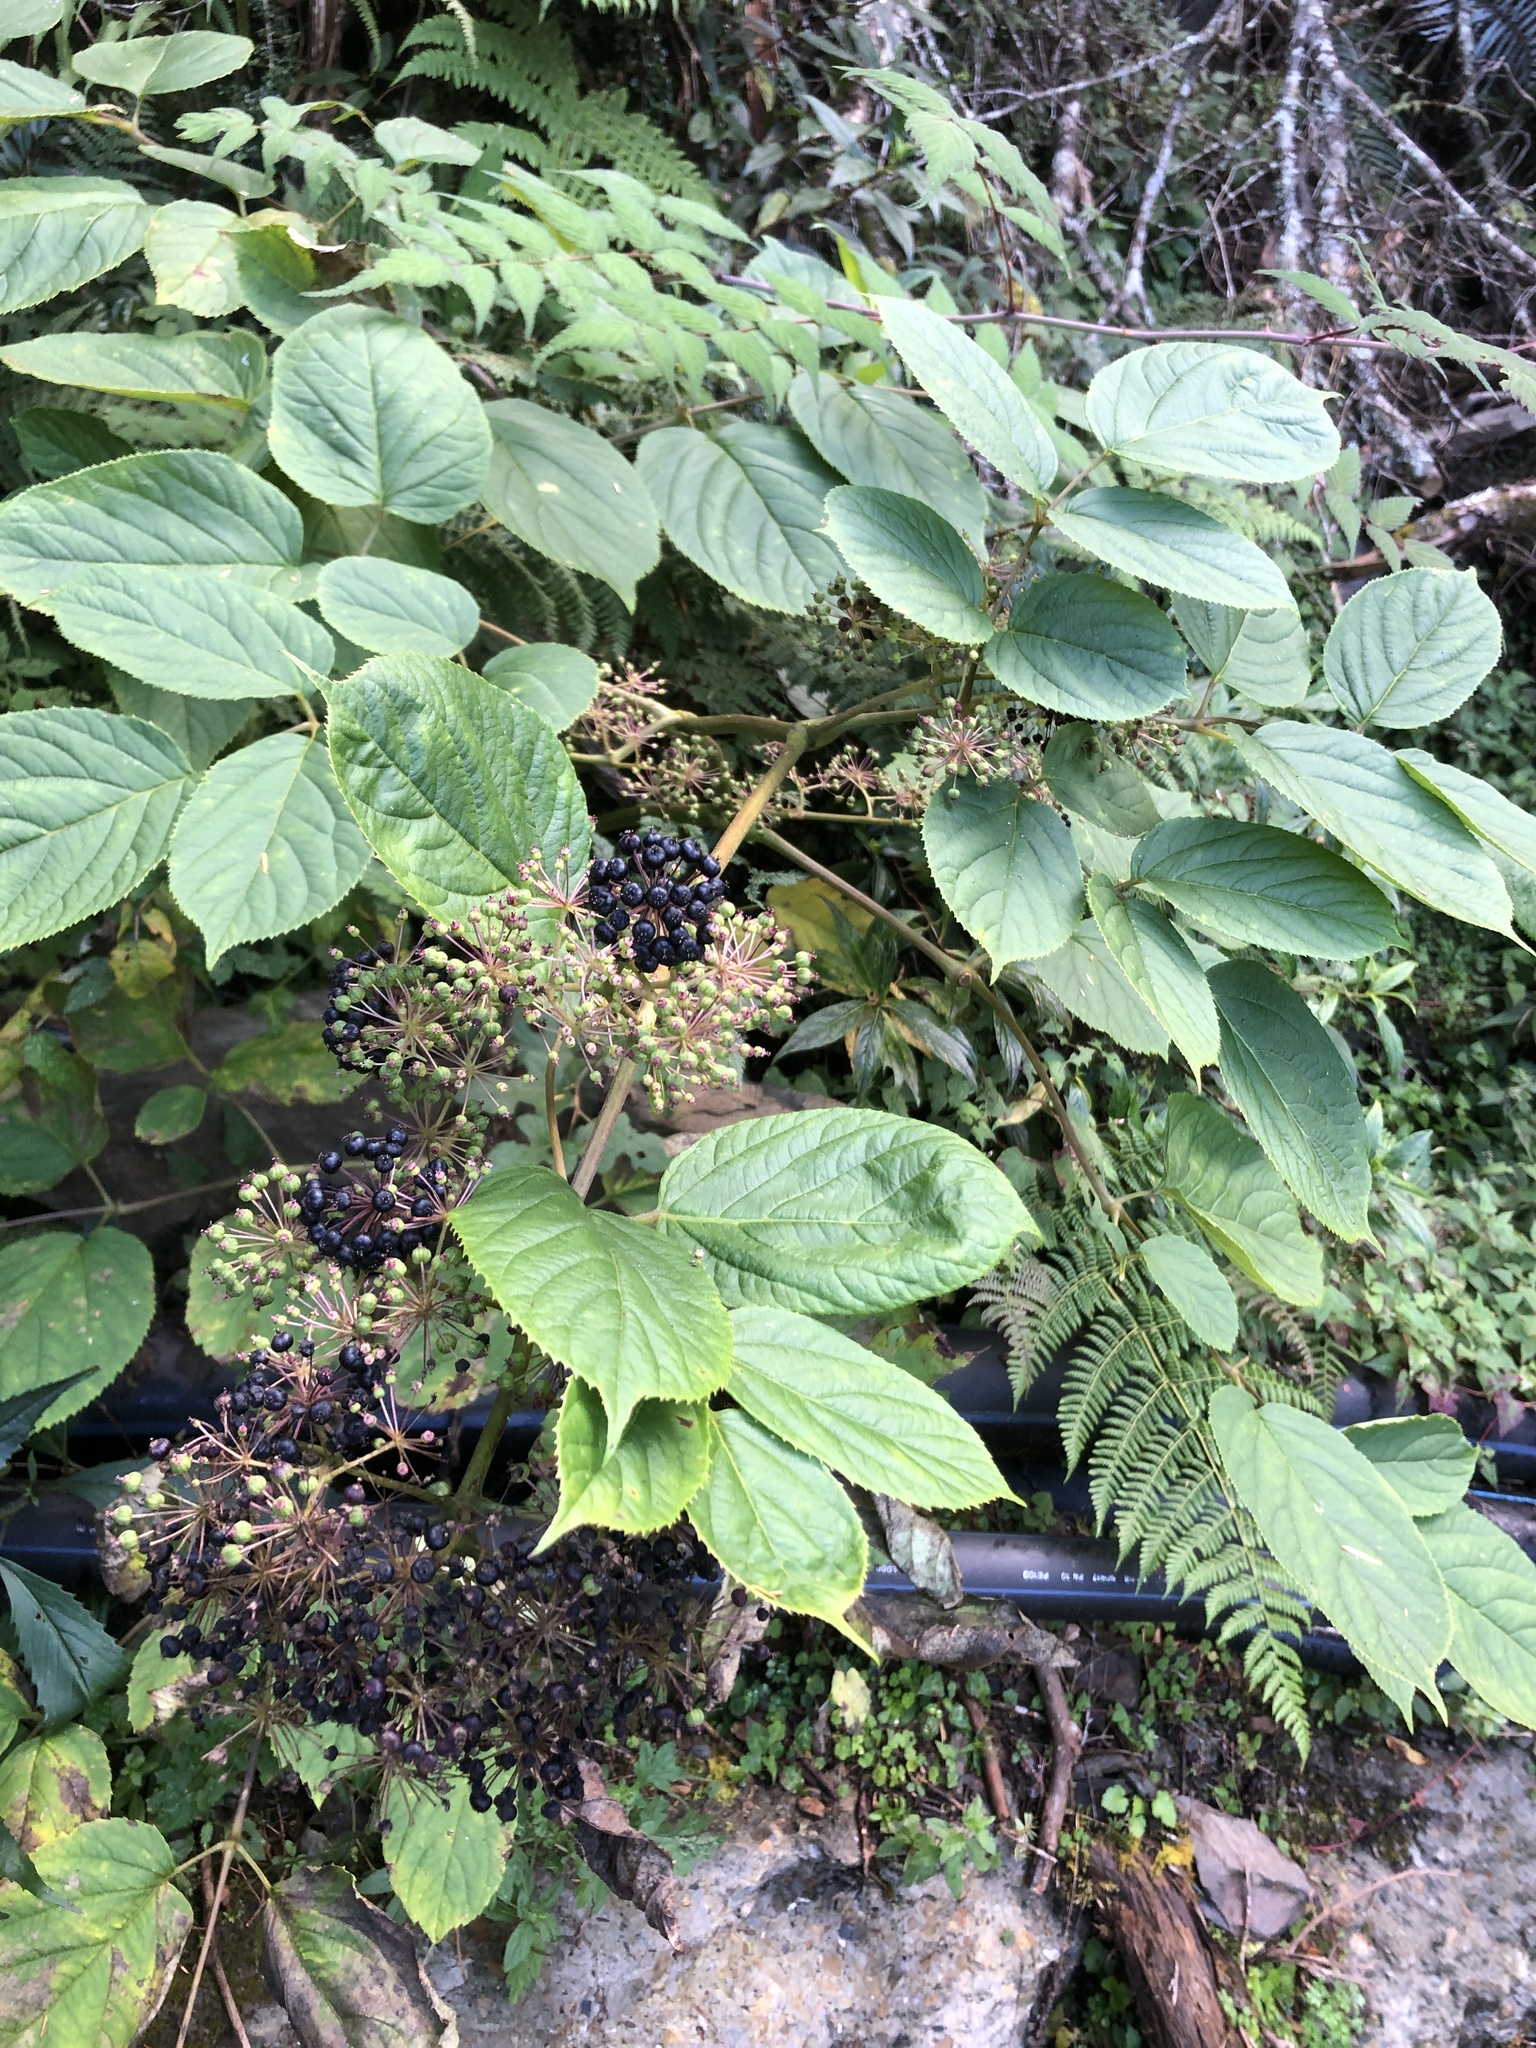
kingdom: Plantae
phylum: Tracheophyta
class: Magnoliopsida
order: Apiales
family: Araliaceae
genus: Aralia
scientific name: Aralia cordata
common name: Udo
